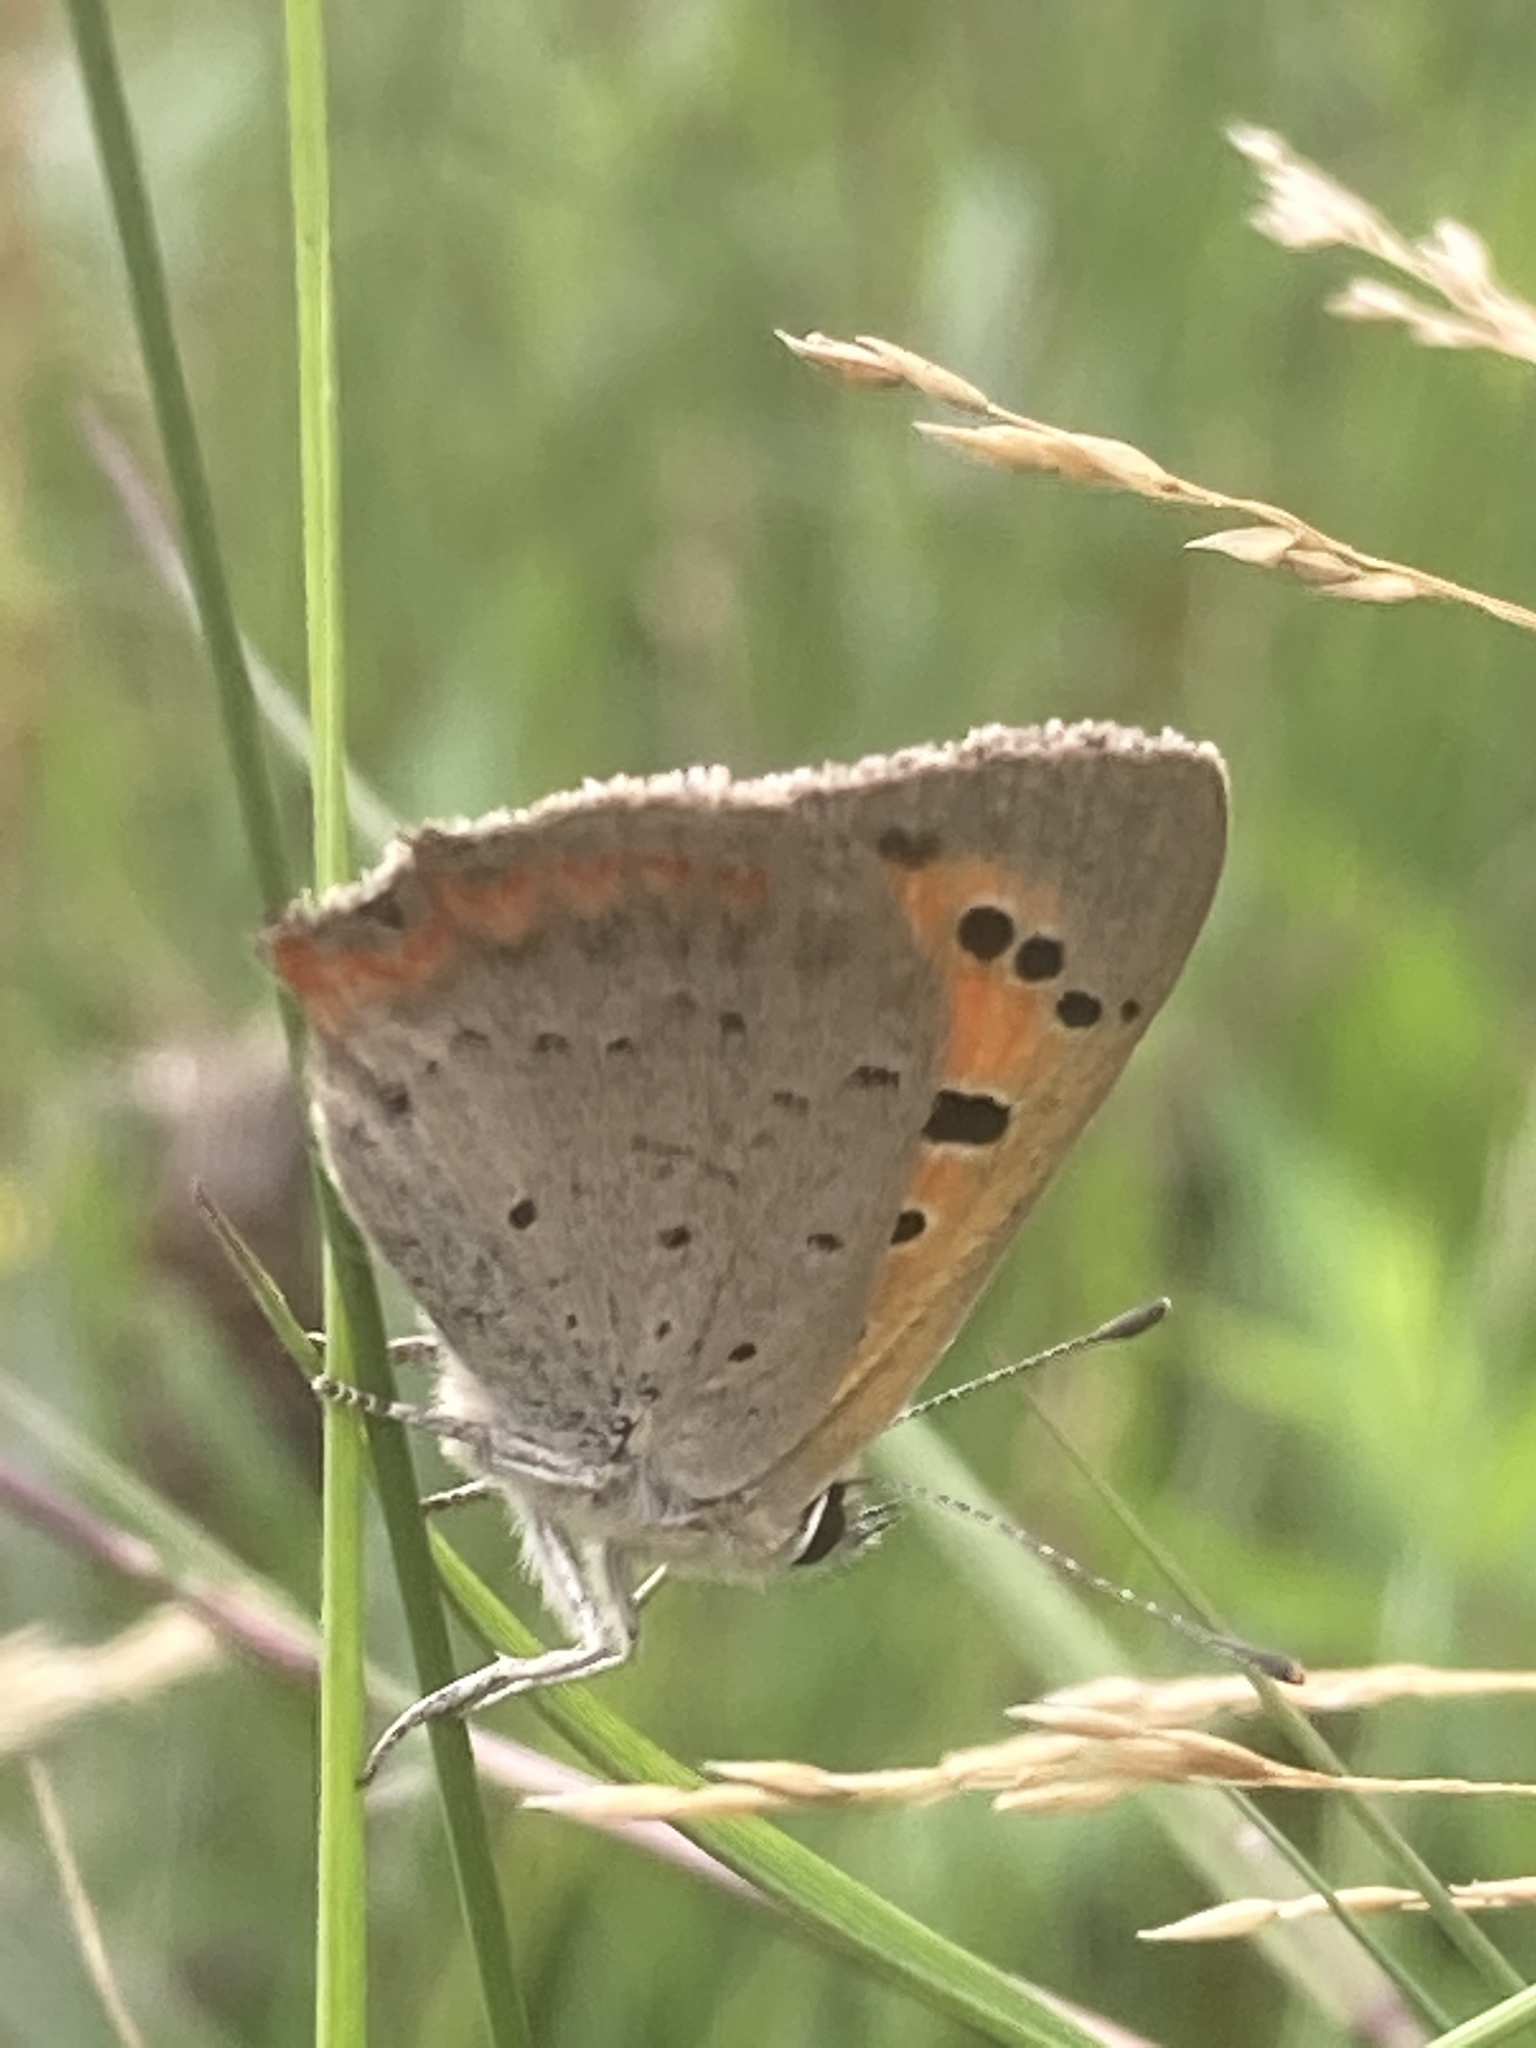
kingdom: Animalia
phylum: Arthropoda
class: Insecta
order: Lepidoptera
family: Lycaenidae
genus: Lycaena
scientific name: Lycaena phlaeas
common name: Small copper
